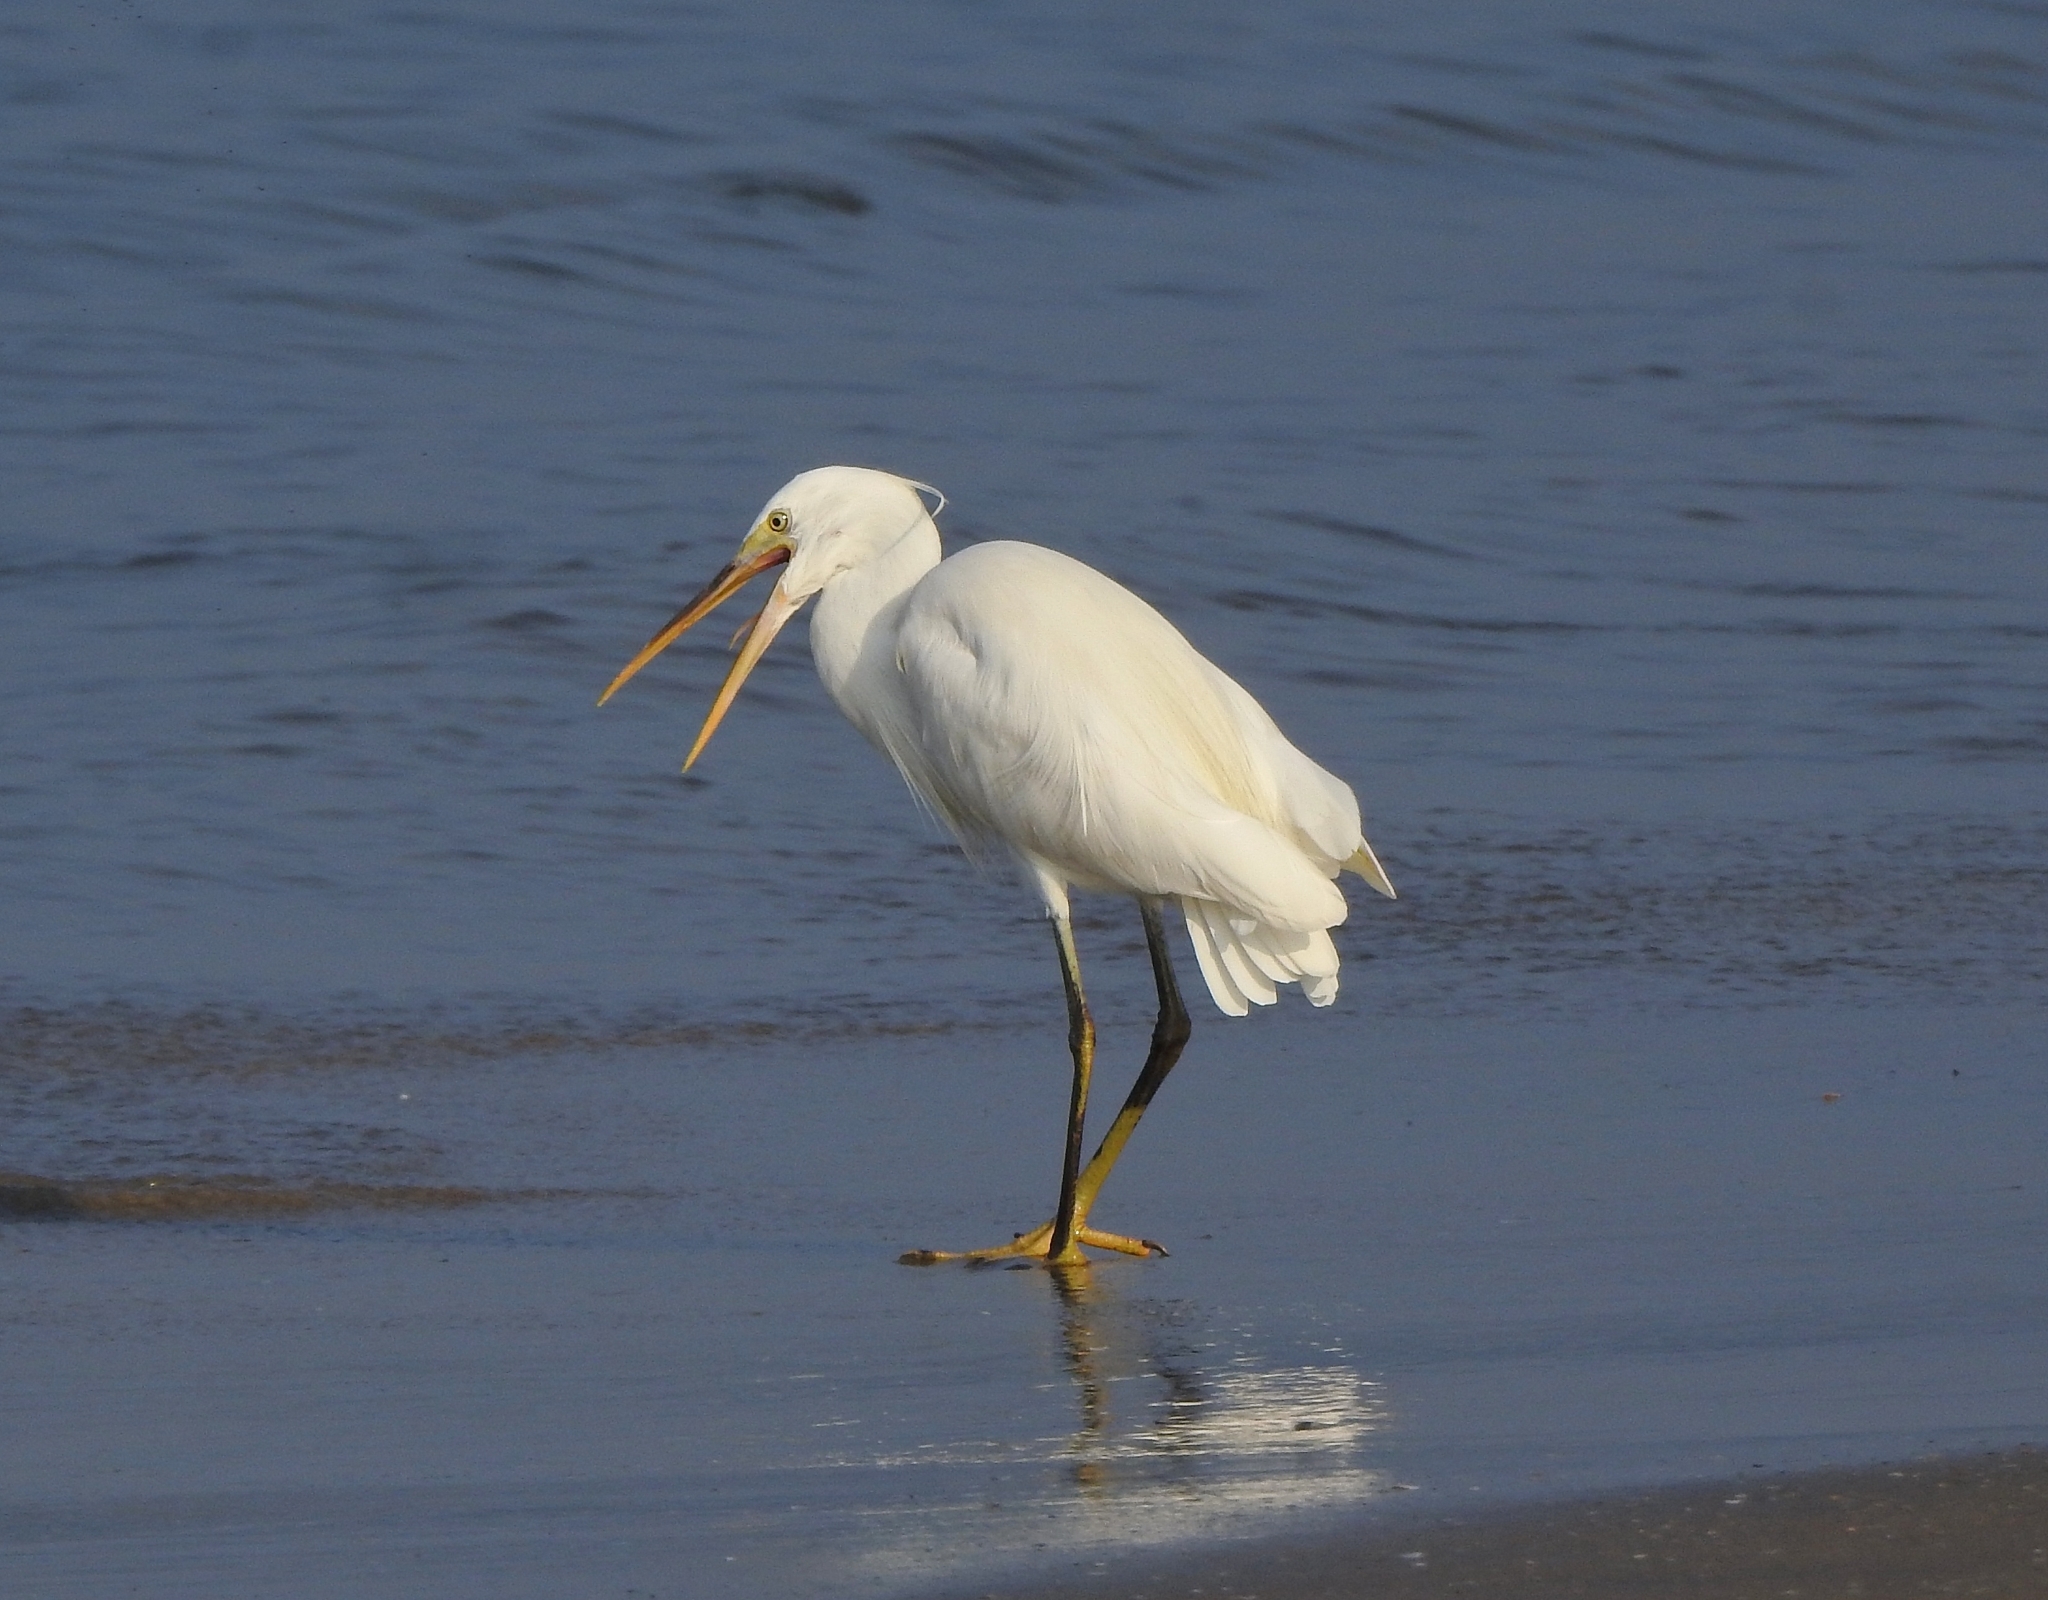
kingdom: Animalia
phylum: Chordata
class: Aves
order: Pelecaniformes
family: Ardeidae
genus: Egretta
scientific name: Egretta gularis
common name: Western reef-heron
